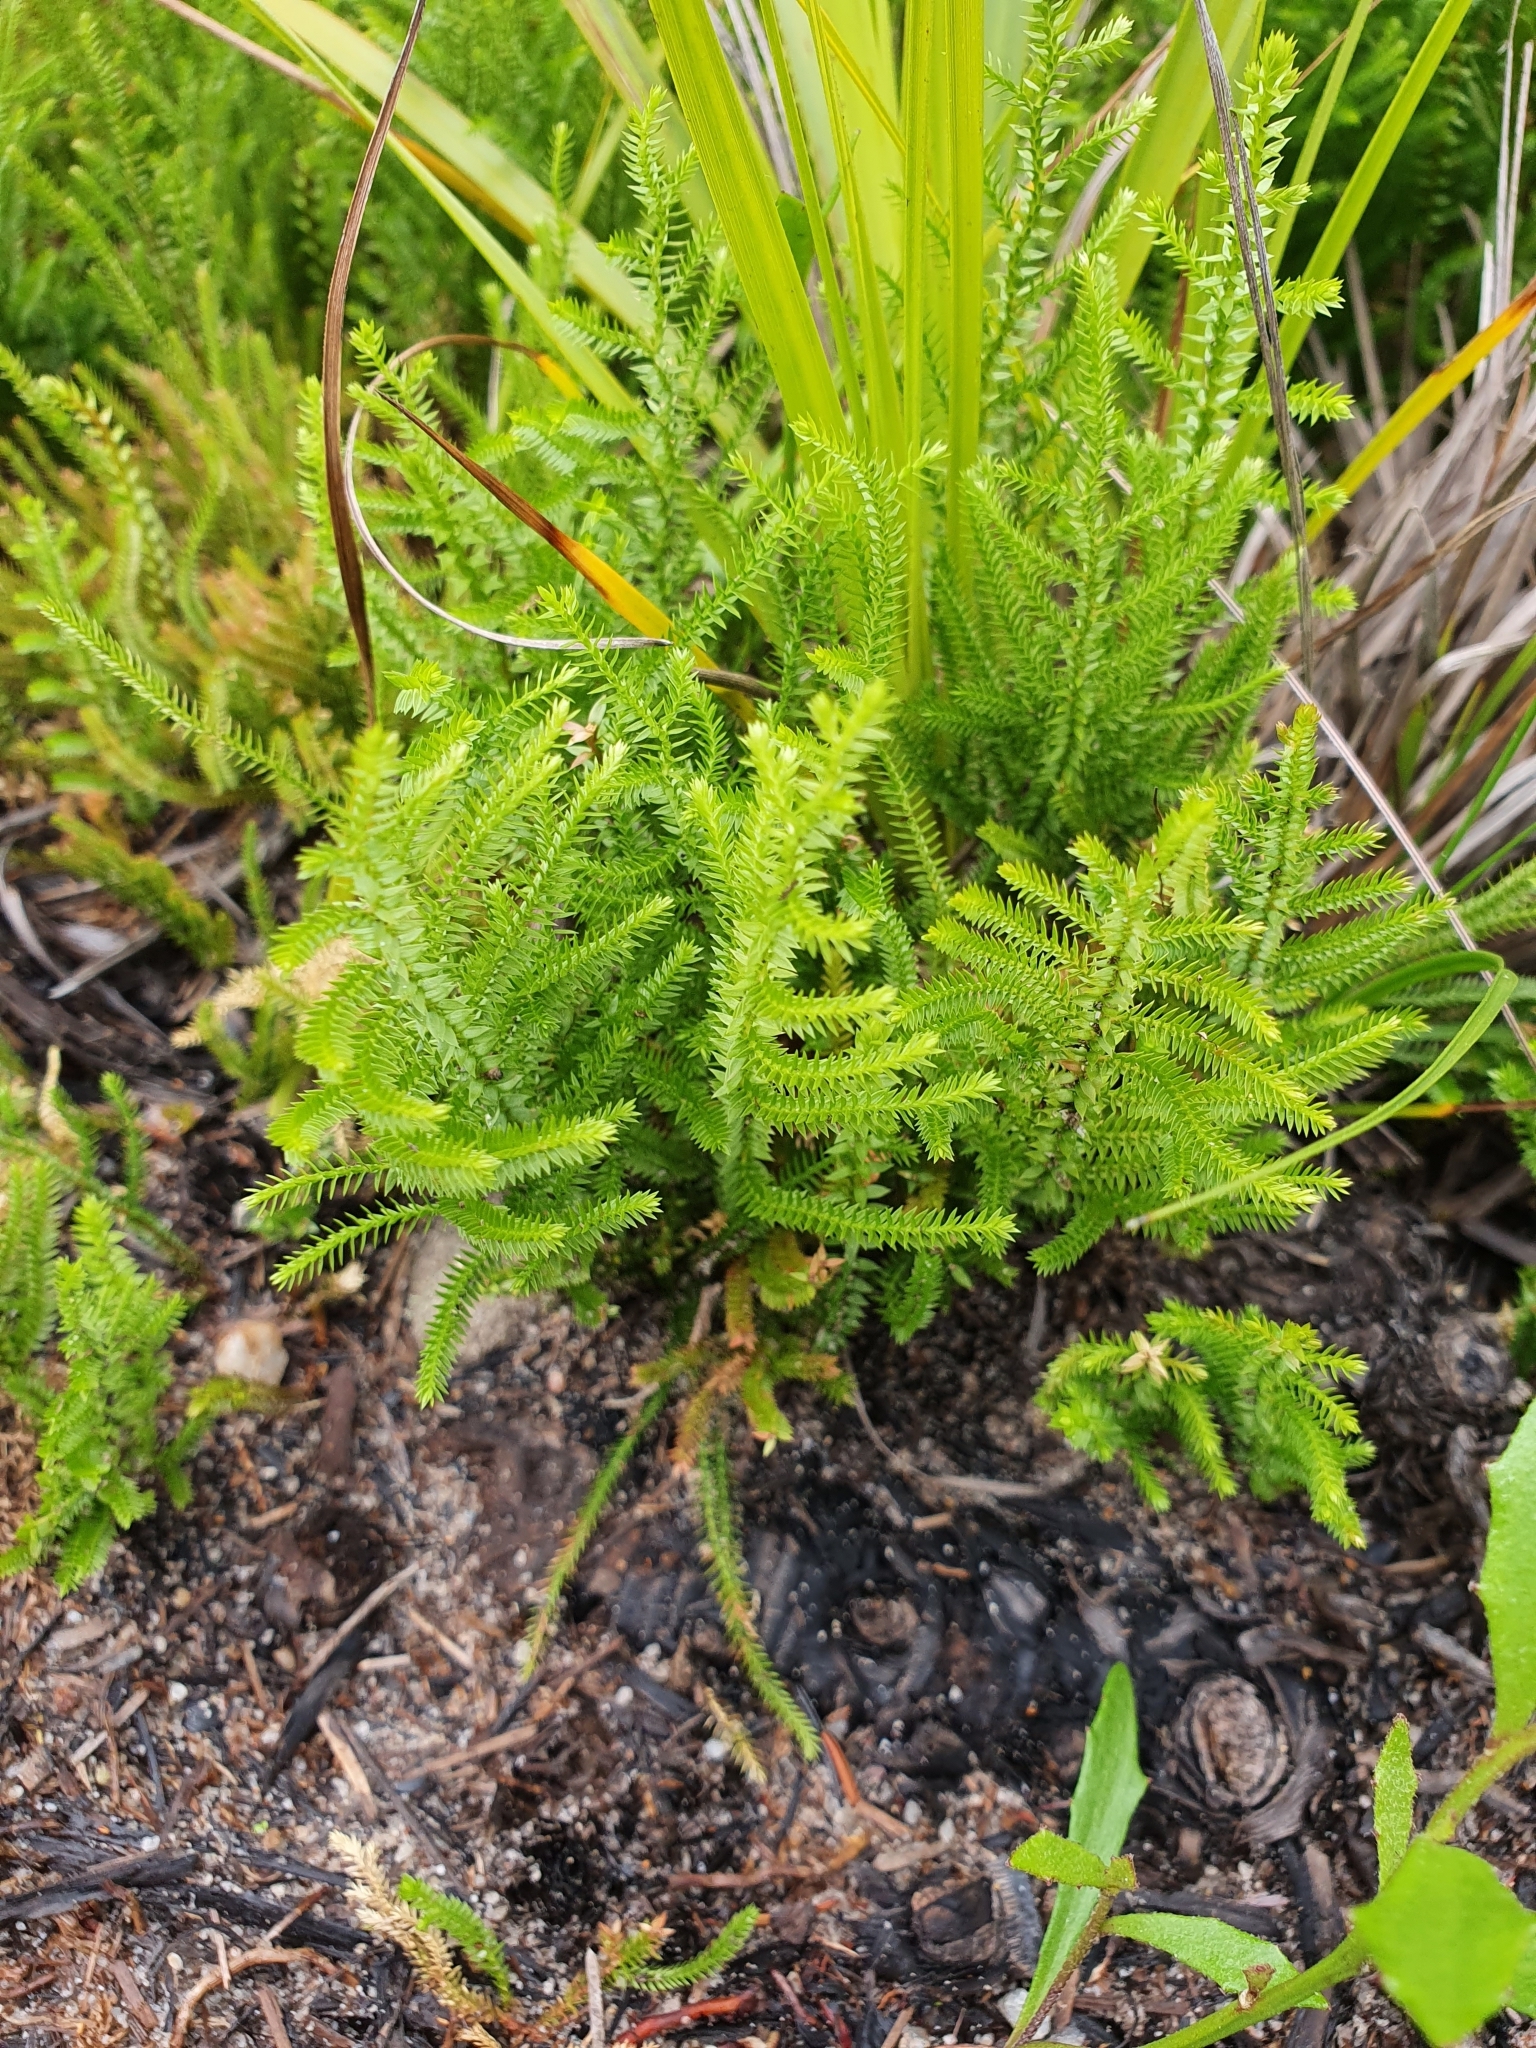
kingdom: Plantae
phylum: Tracheophyta
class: Lycopodiopsida
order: Selaginellales
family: Selaginellaceae
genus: Selaginella
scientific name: Selaginella uliginosa
